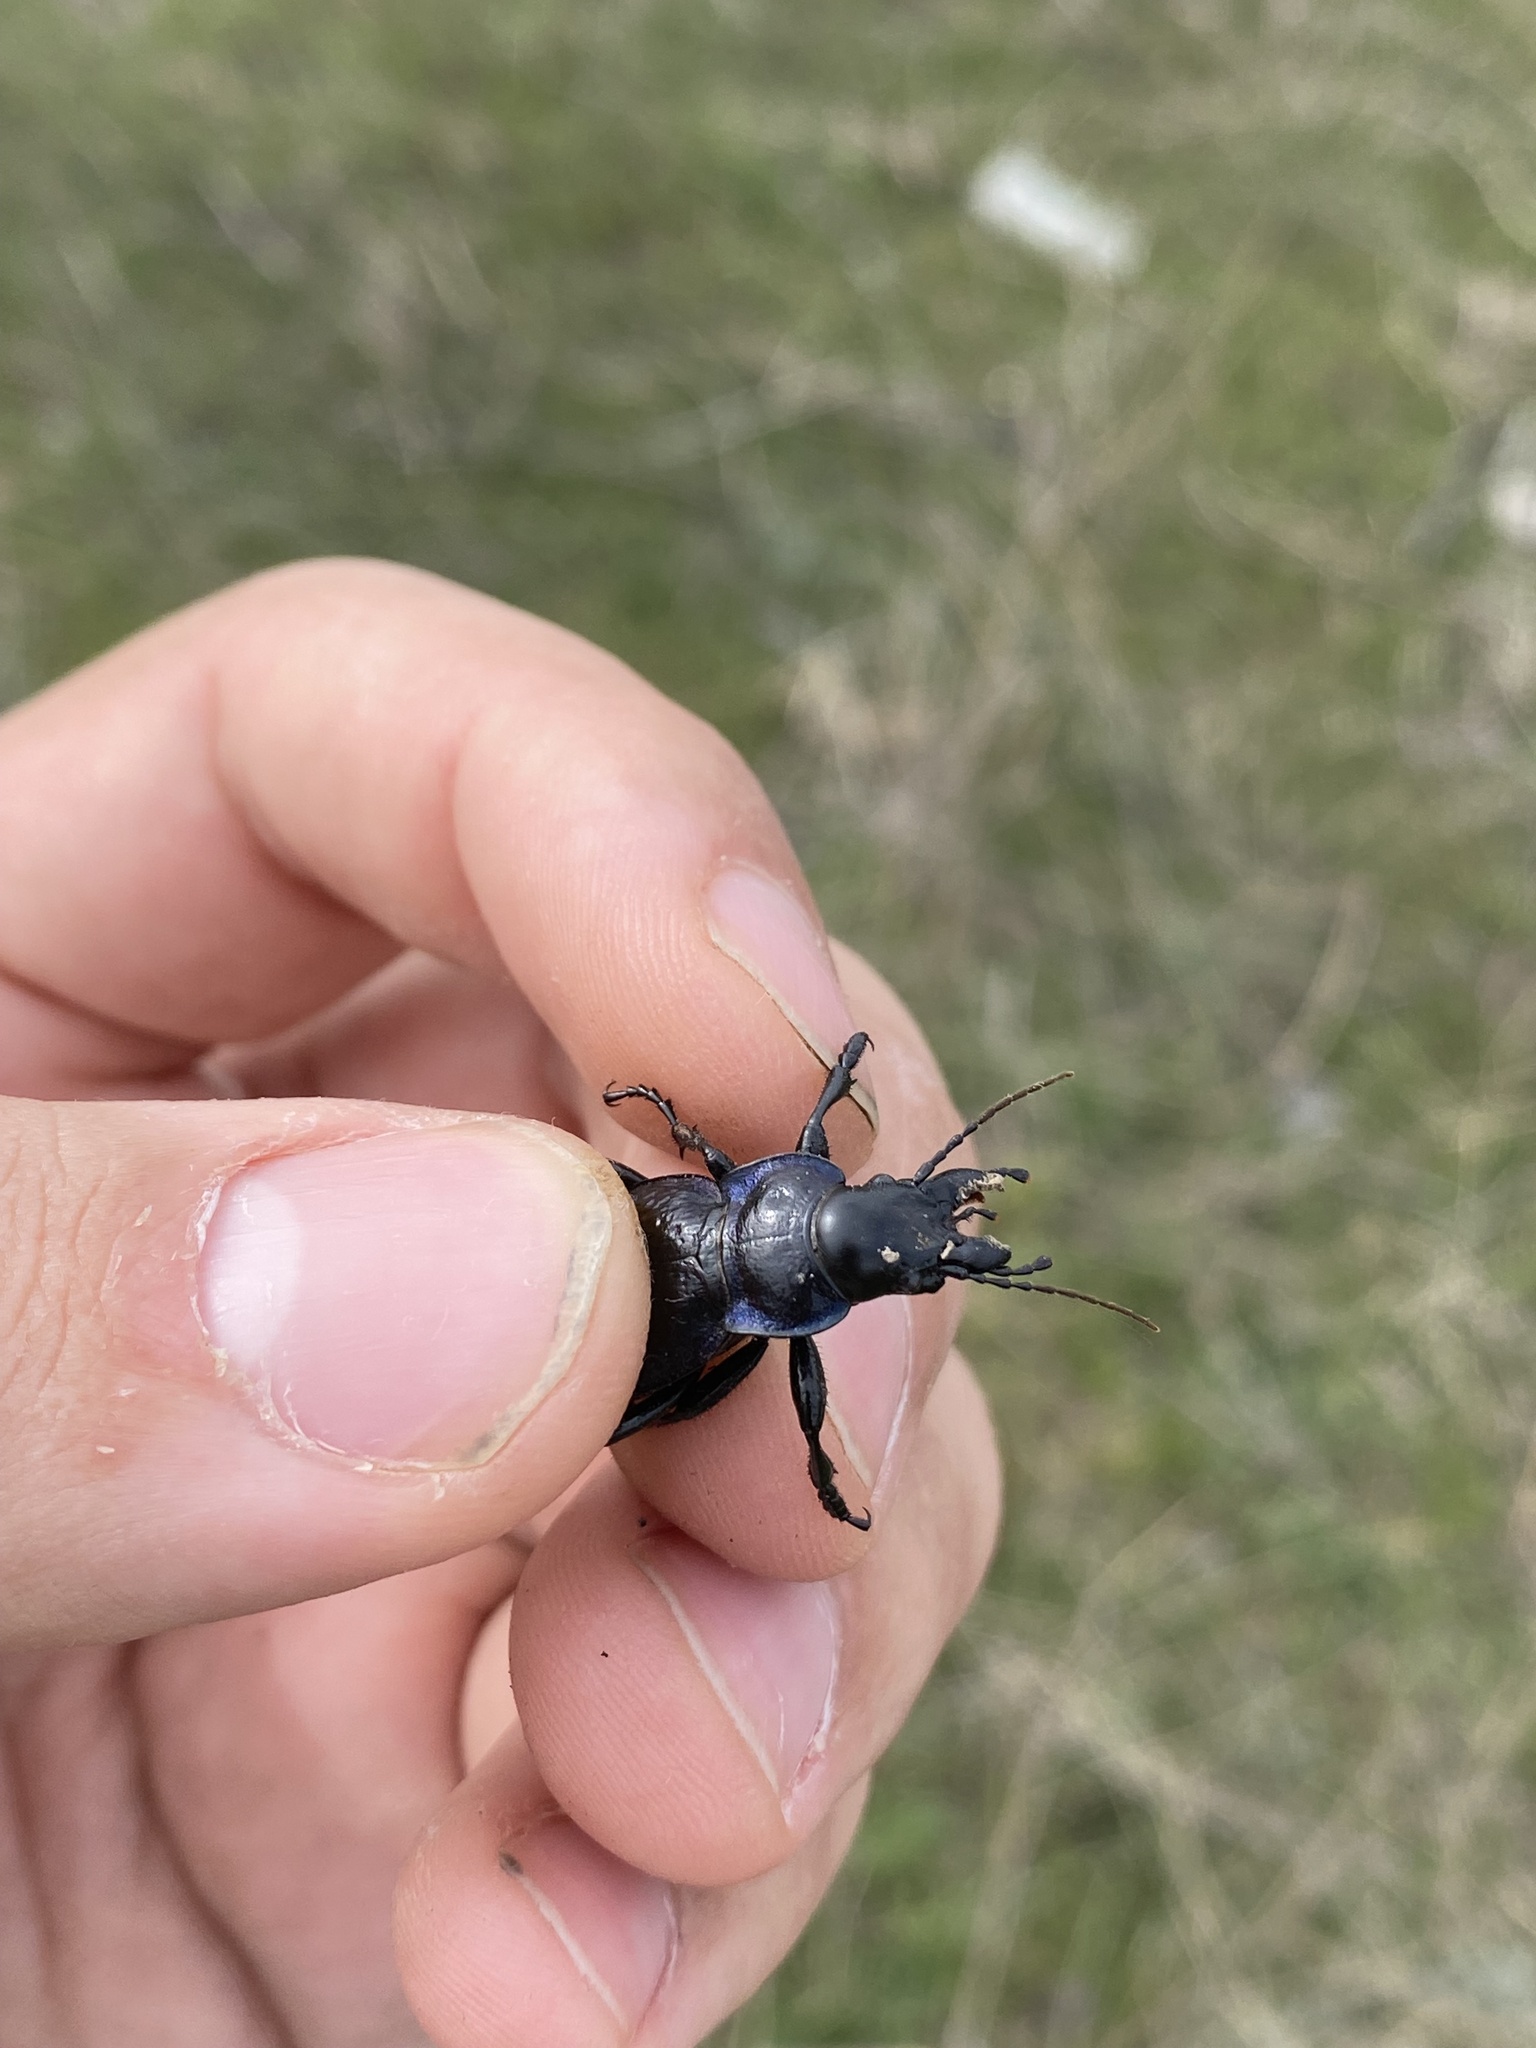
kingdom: Animalia
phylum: Arthropoda
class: Insecta
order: Coleoptera
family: Carabidae
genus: Carabus
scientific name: Carabus cicatricosus
